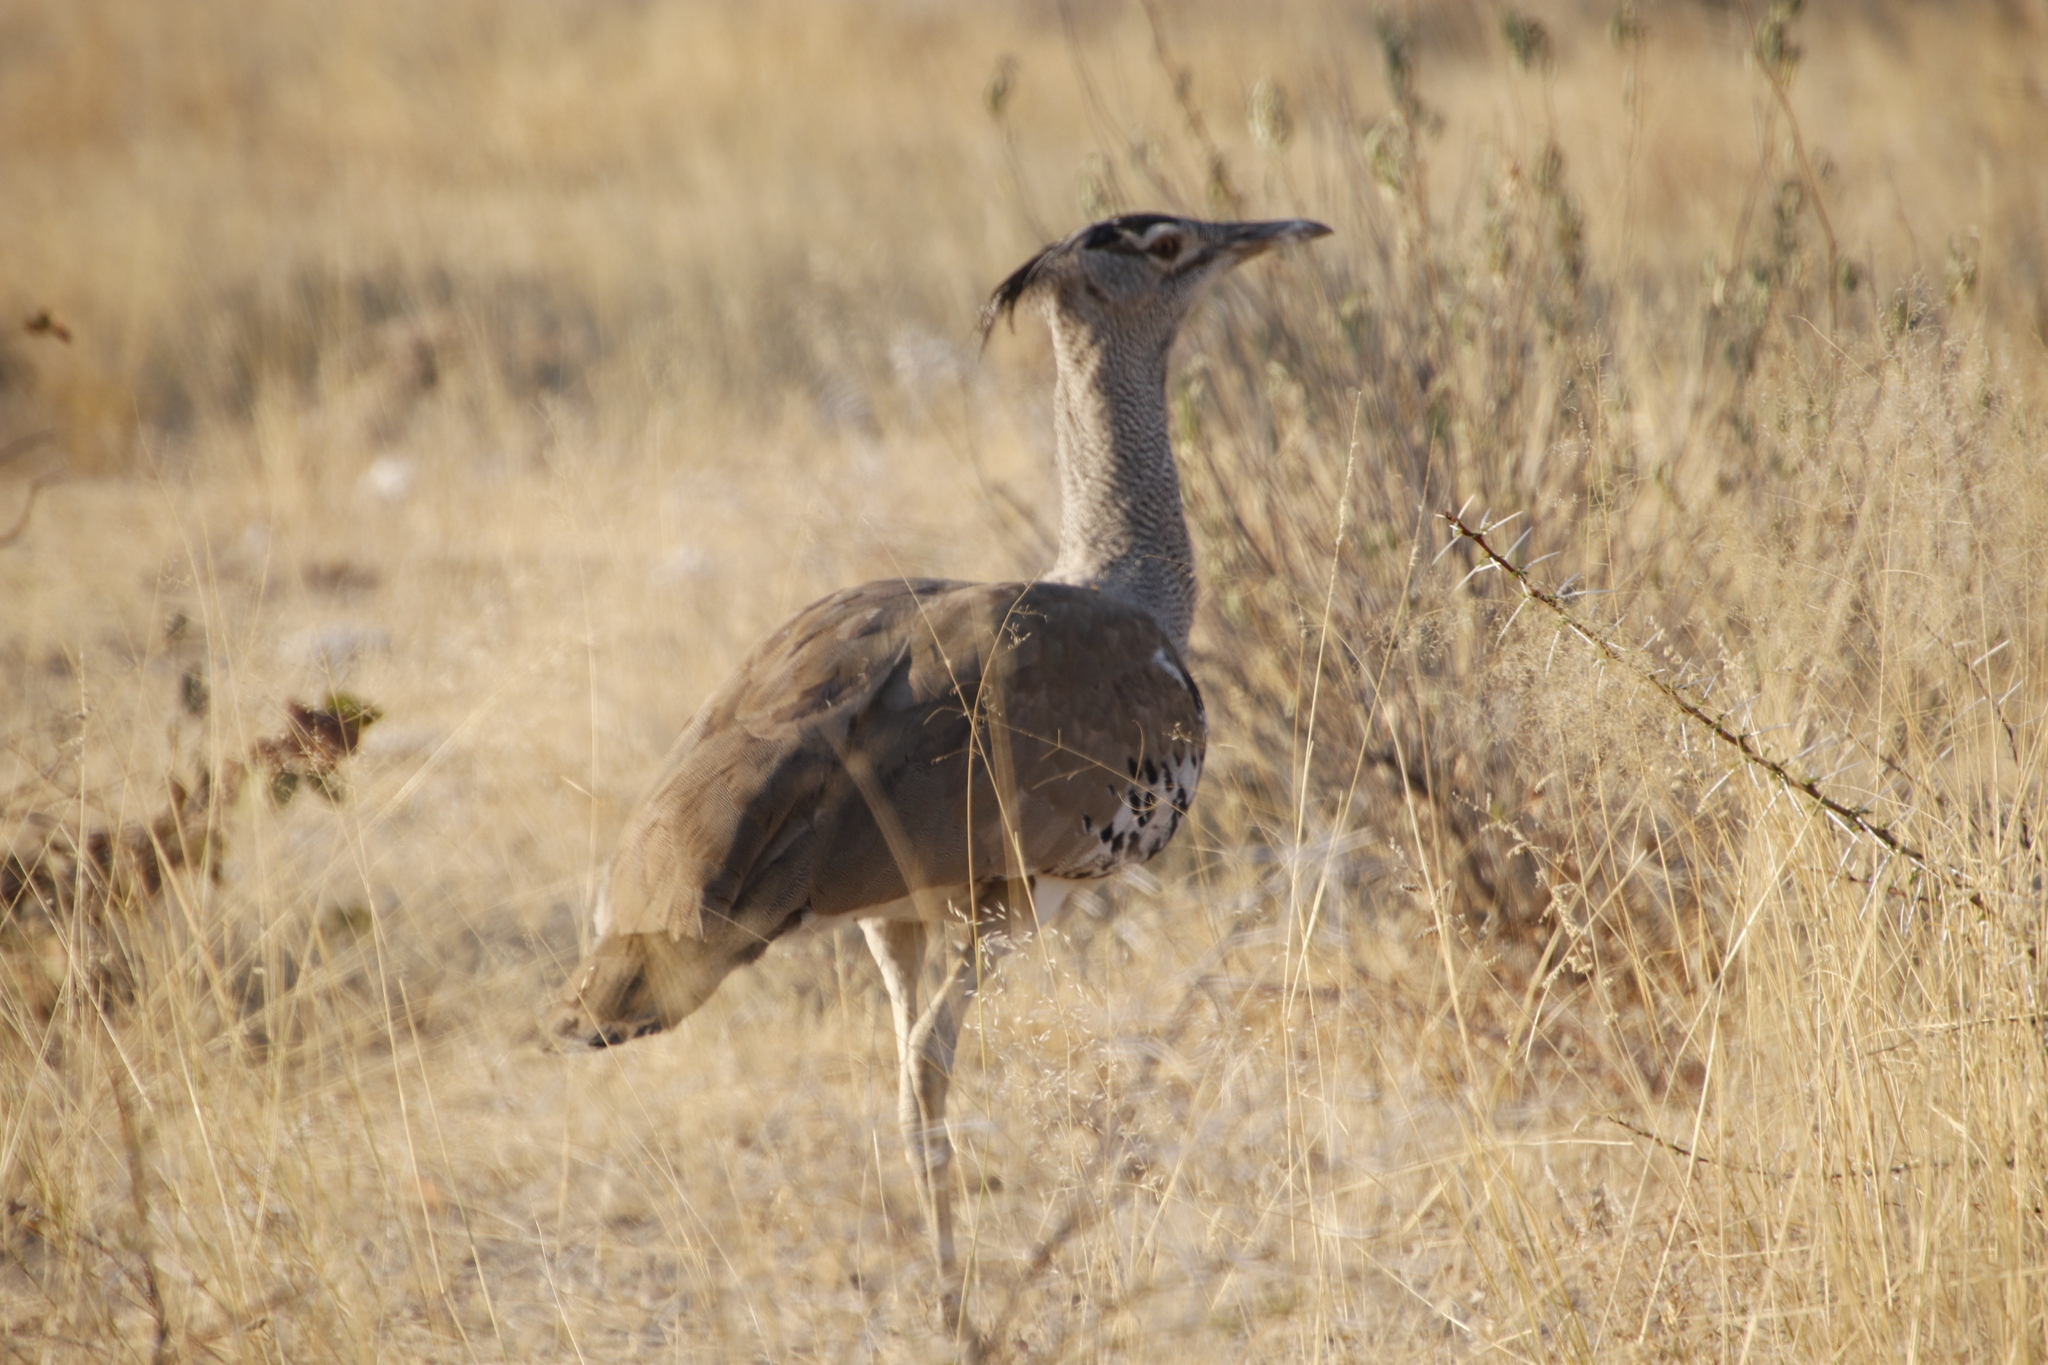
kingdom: Animalia
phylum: Chordata
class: Aves
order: Otidiformes
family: Otididae
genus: Ardeotis
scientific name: Ardeotis kori
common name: Kori bustard
